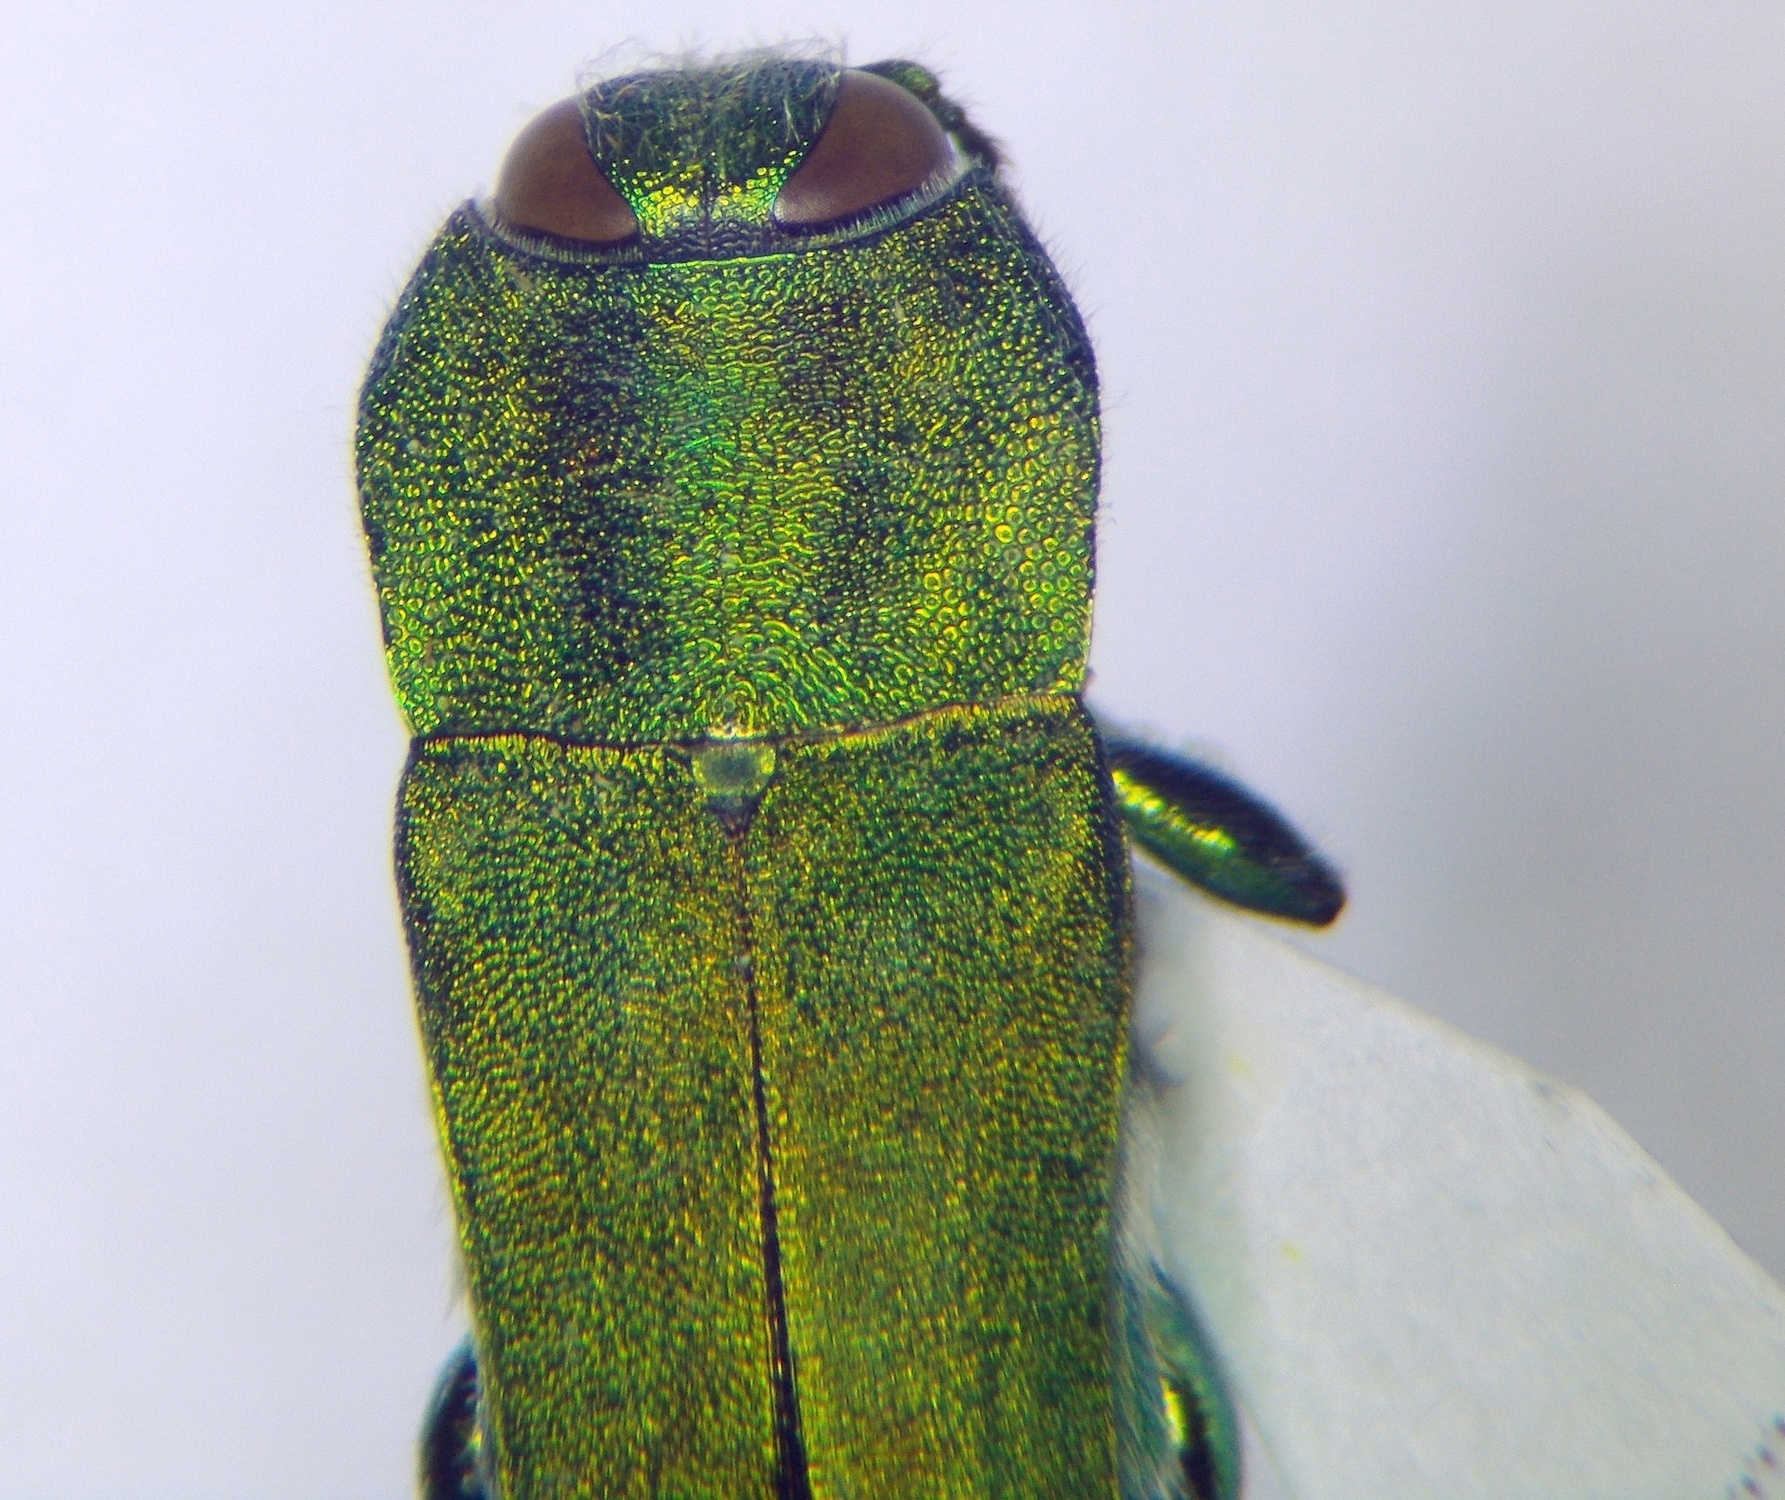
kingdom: Animalia
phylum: Arthropoda
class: Insecta
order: Coleoptera
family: Buprestidae
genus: Anthaxia
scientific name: Anthaxia hungarica
